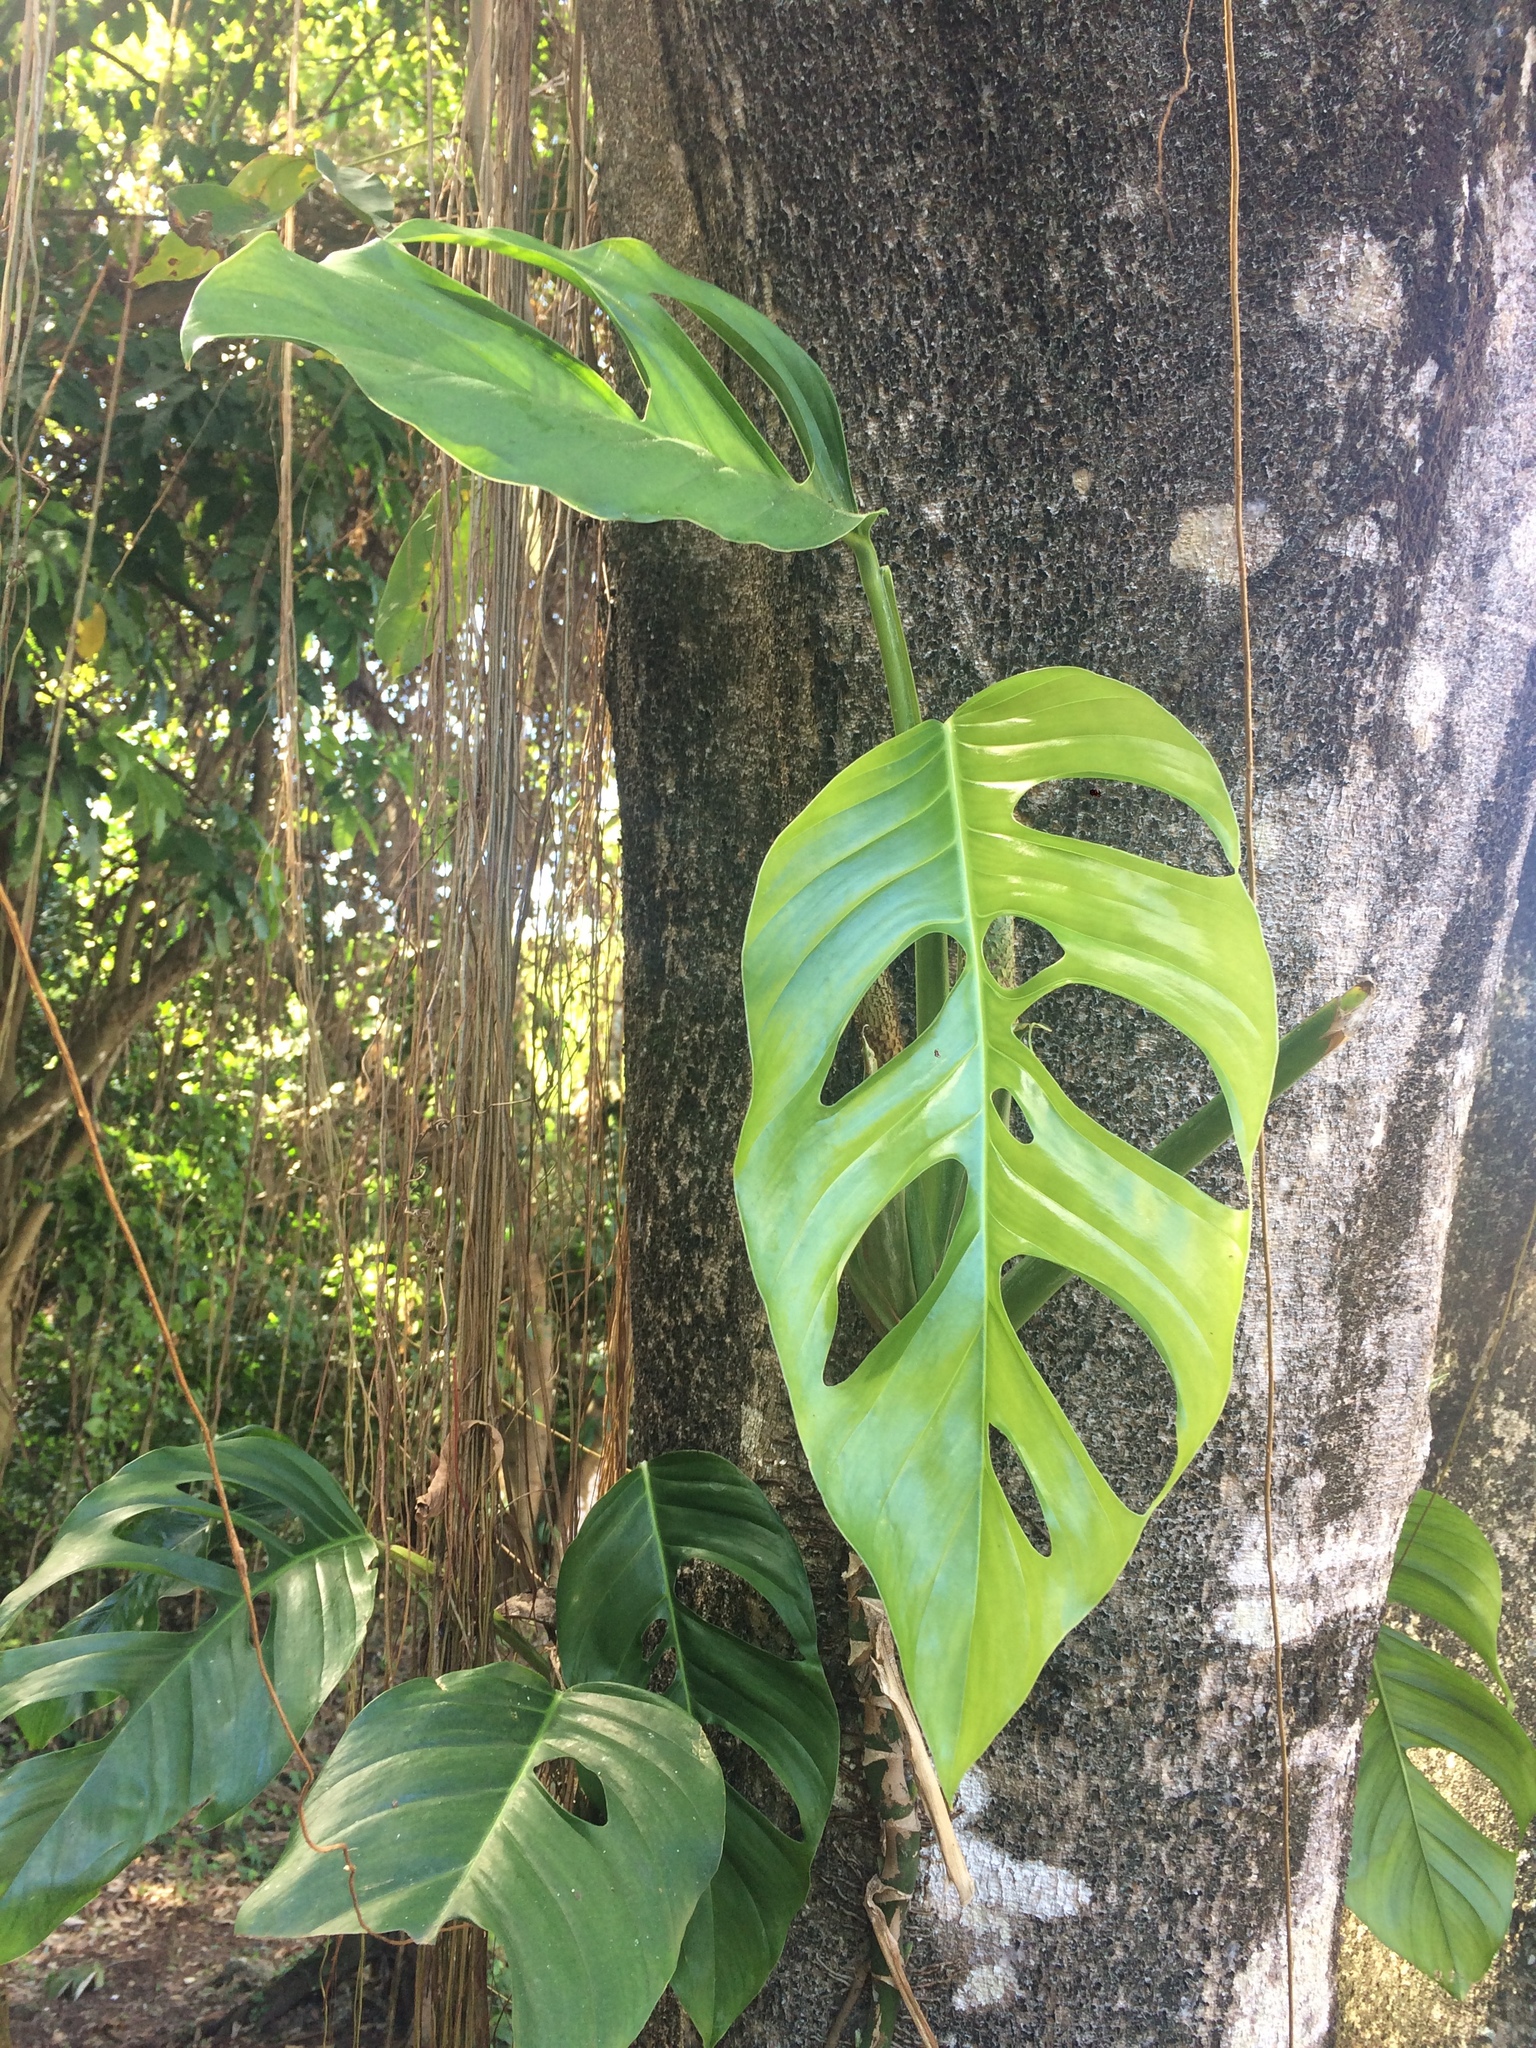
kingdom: Plantae
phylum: Tracheophyta
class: Liliopsida
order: Alismatales
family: Araceae
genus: Monstera
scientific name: Monstera adansonii
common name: Tarovine
